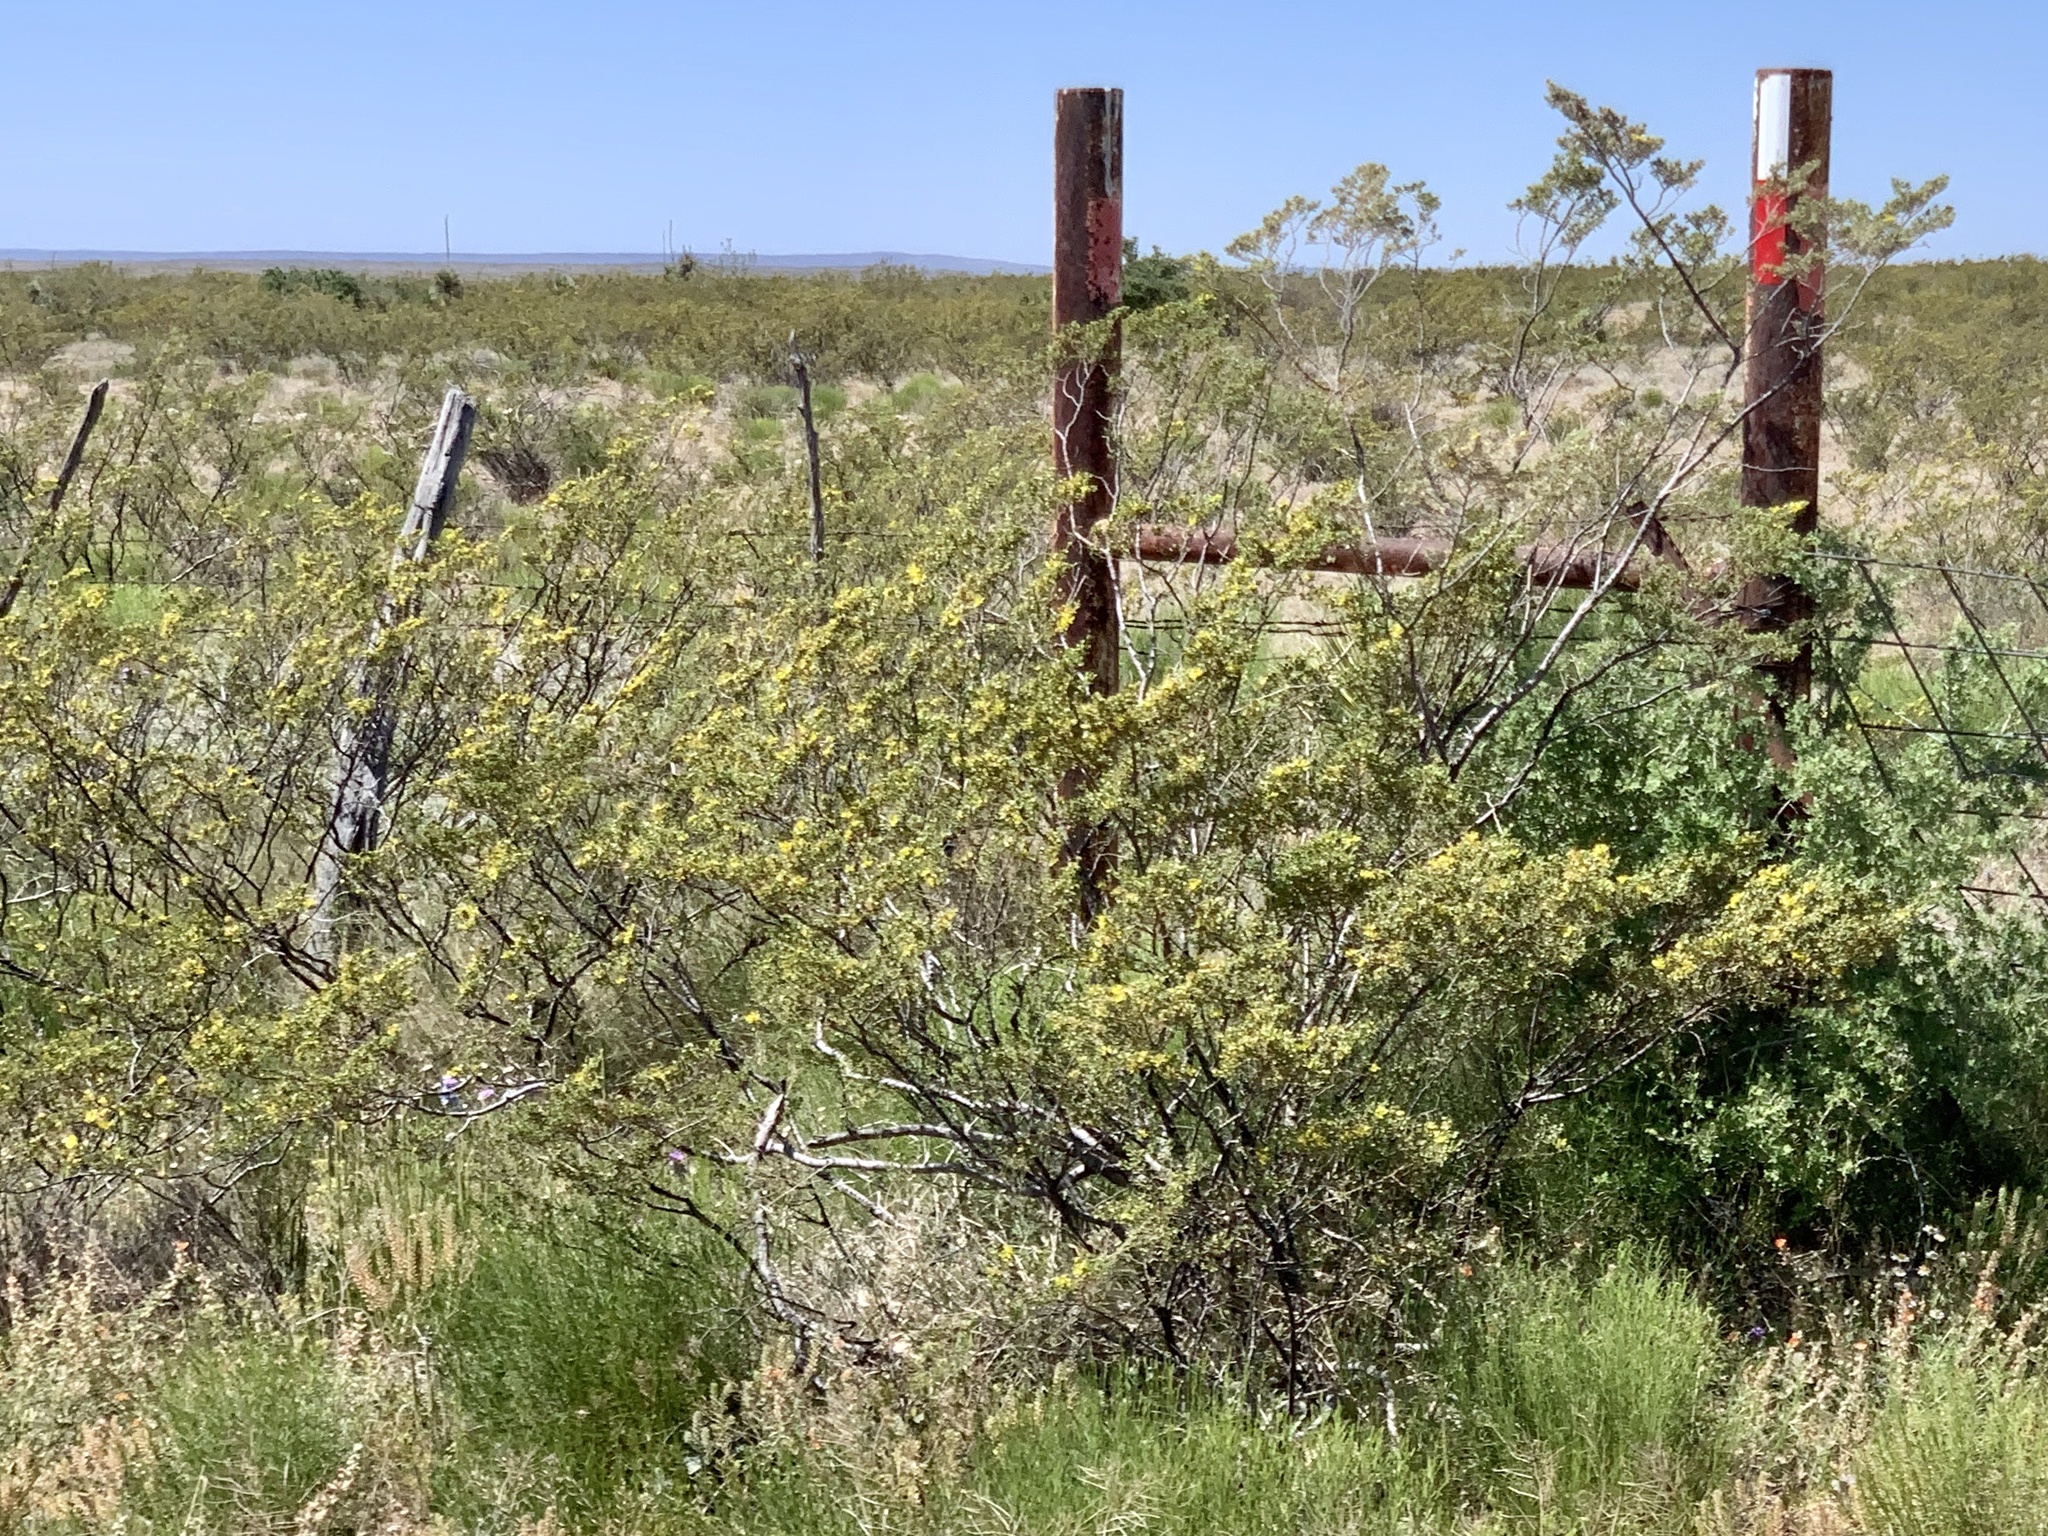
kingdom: Plantae
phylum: Tracheophyta
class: Magnoliopsida
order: Zygophyllales
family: Zygophyllaceae
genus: Larrea
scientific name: Larrea tridentata
